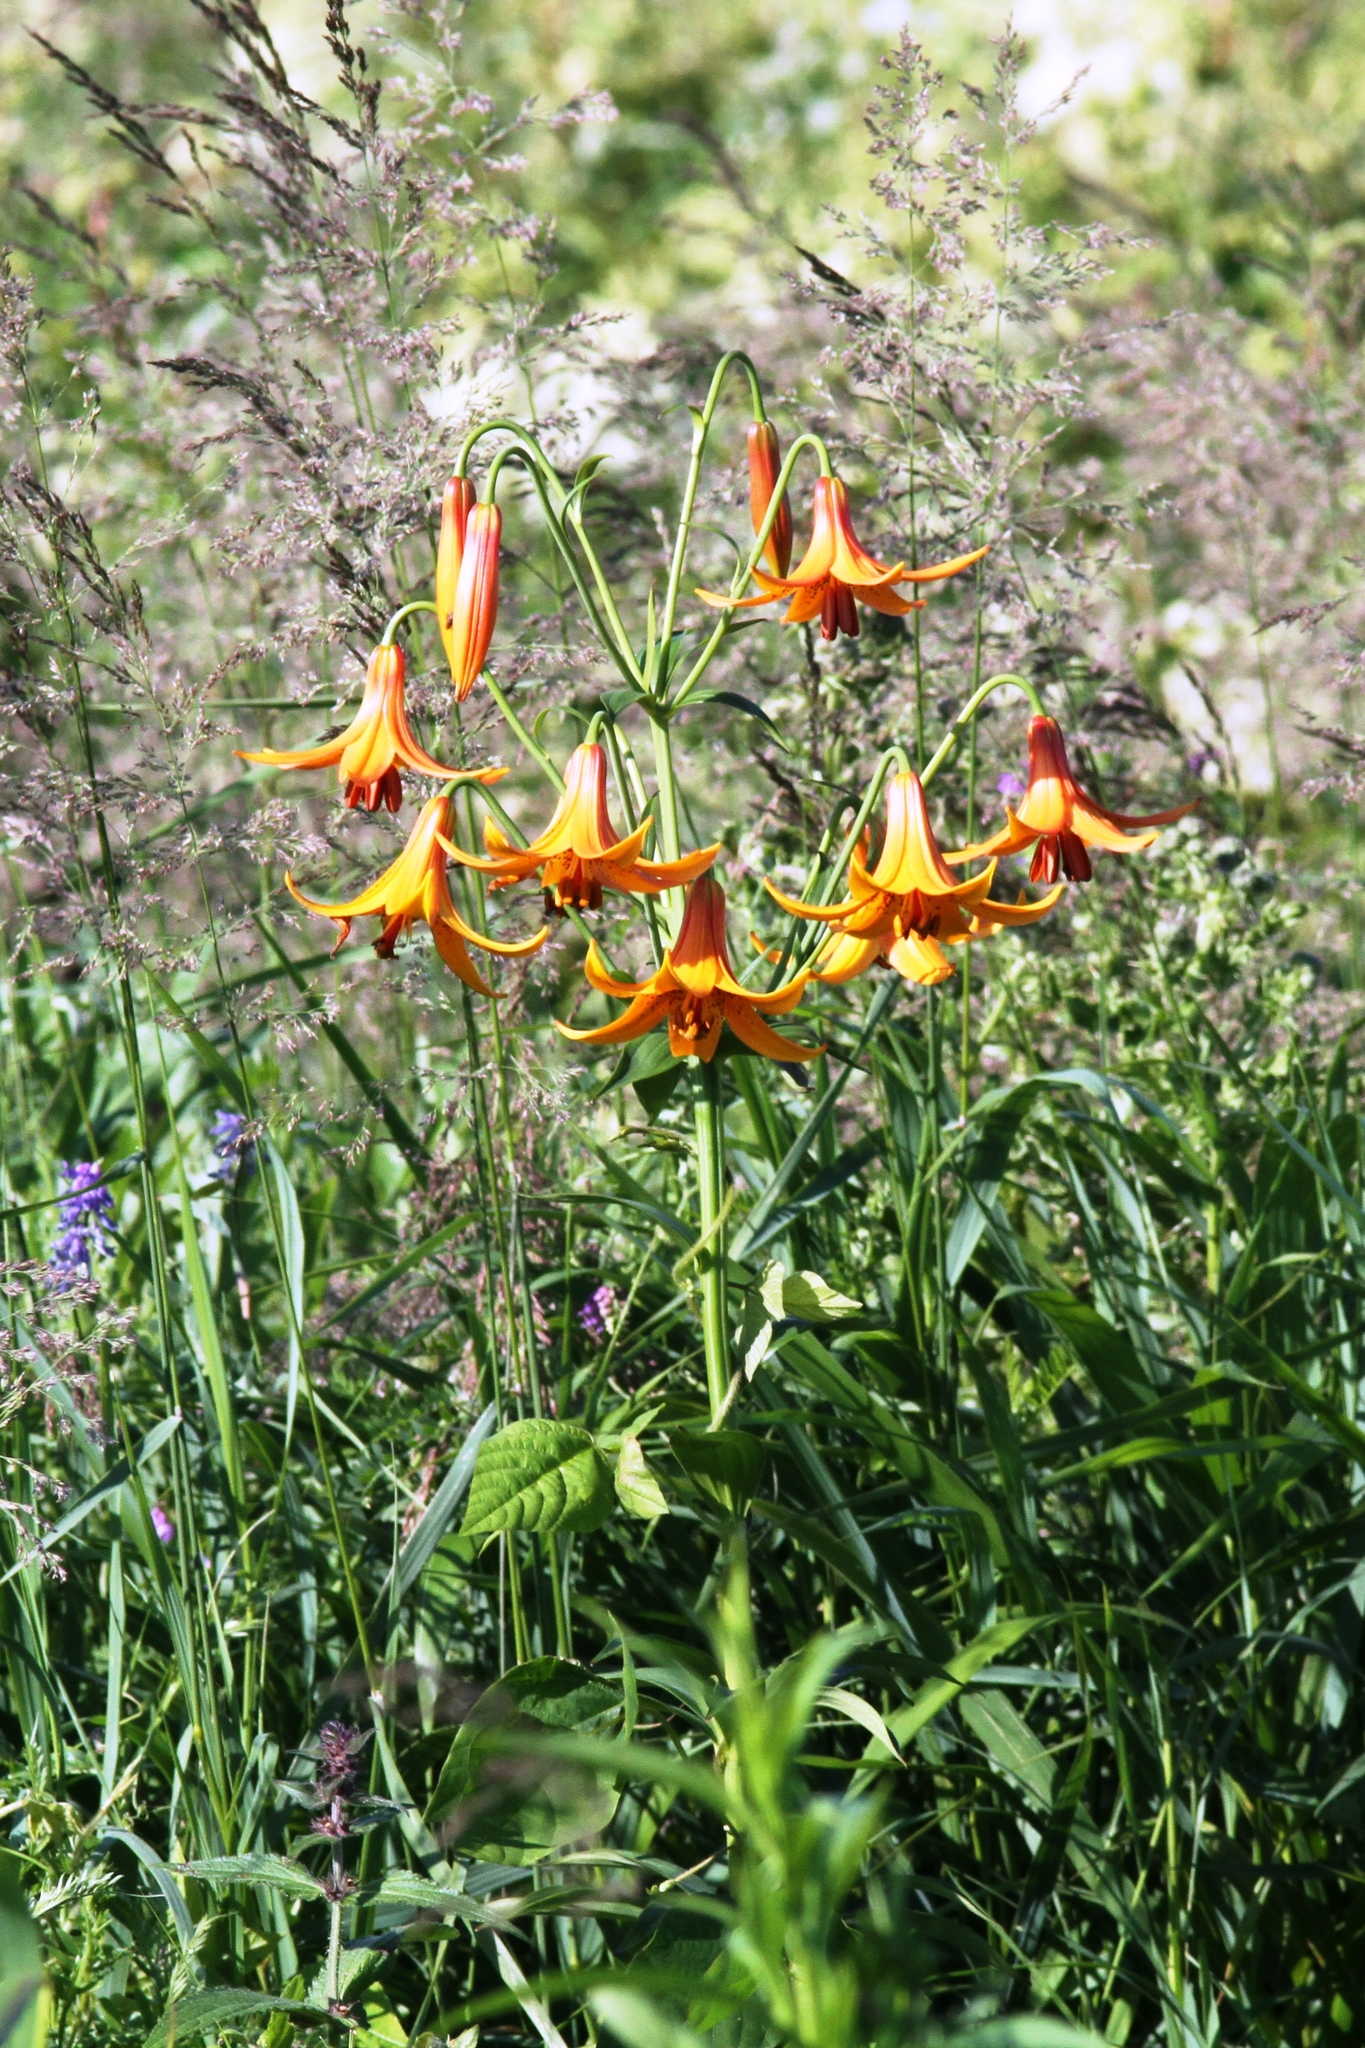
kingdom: Plantae
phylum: Tracheophyta
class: Liliopsida
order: Liliales
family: Liliaceae
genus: Lilium
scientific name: Lilium canadense
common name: Canada lily
